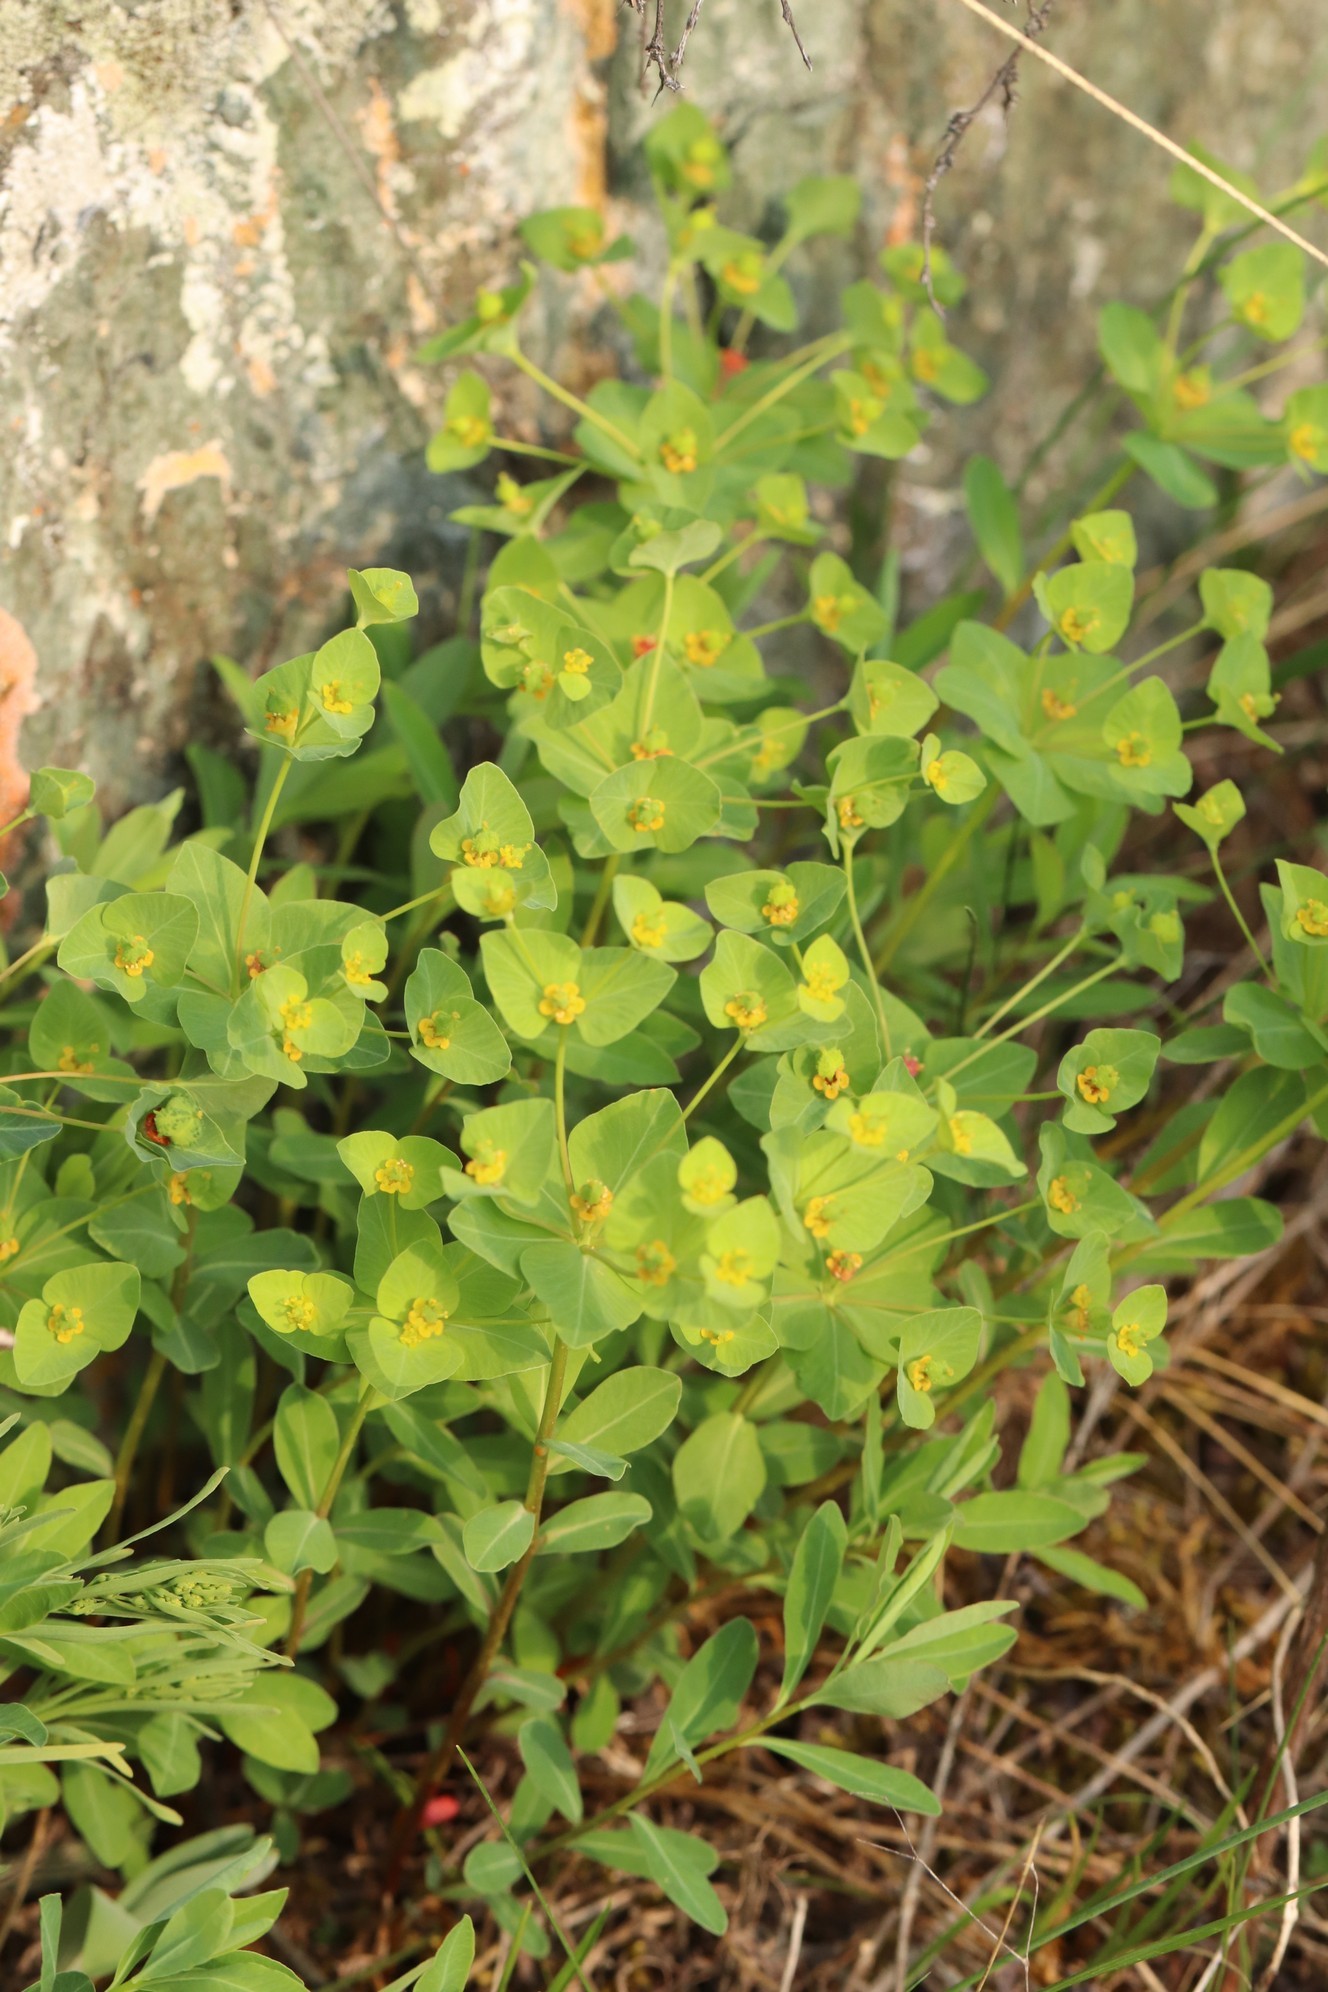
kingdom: Plantae
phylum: Tracheophyta
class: Magnoliopsida
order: Malpighiales
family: Euphorbiaceae
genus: Euphorbia
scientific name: Euphorbia altaica
